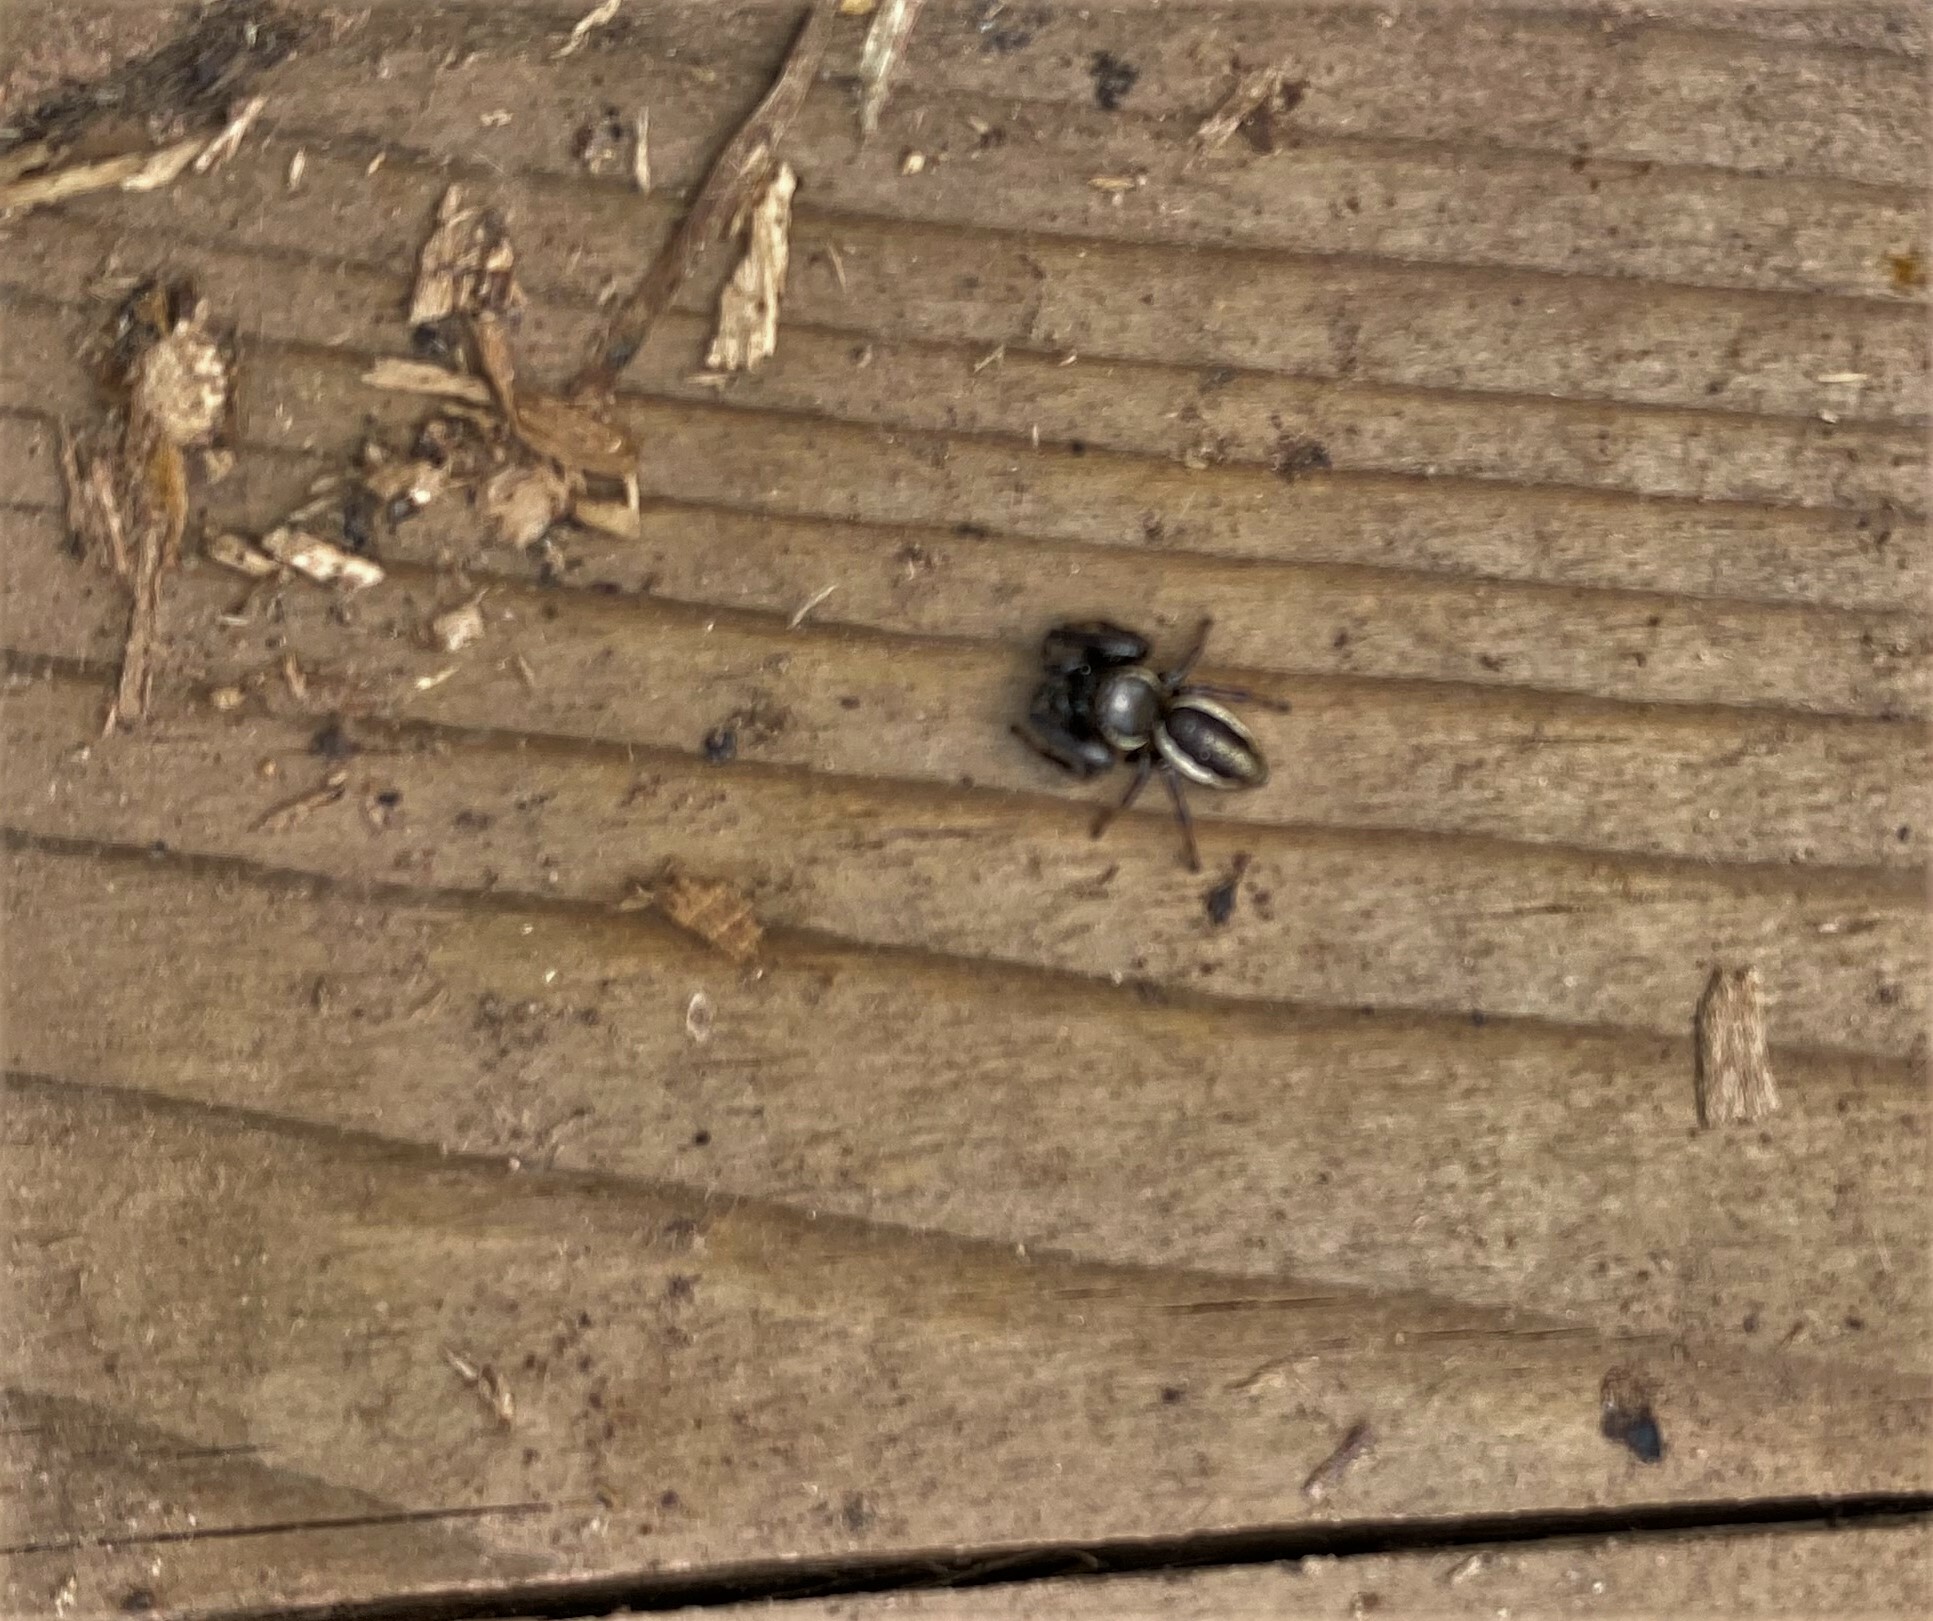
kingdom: Animalia
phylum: Arthropoda
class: Arachnida
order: Araneae
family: Salticidae
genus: Eris
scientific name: Eris militaris
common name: Bronze jumper
